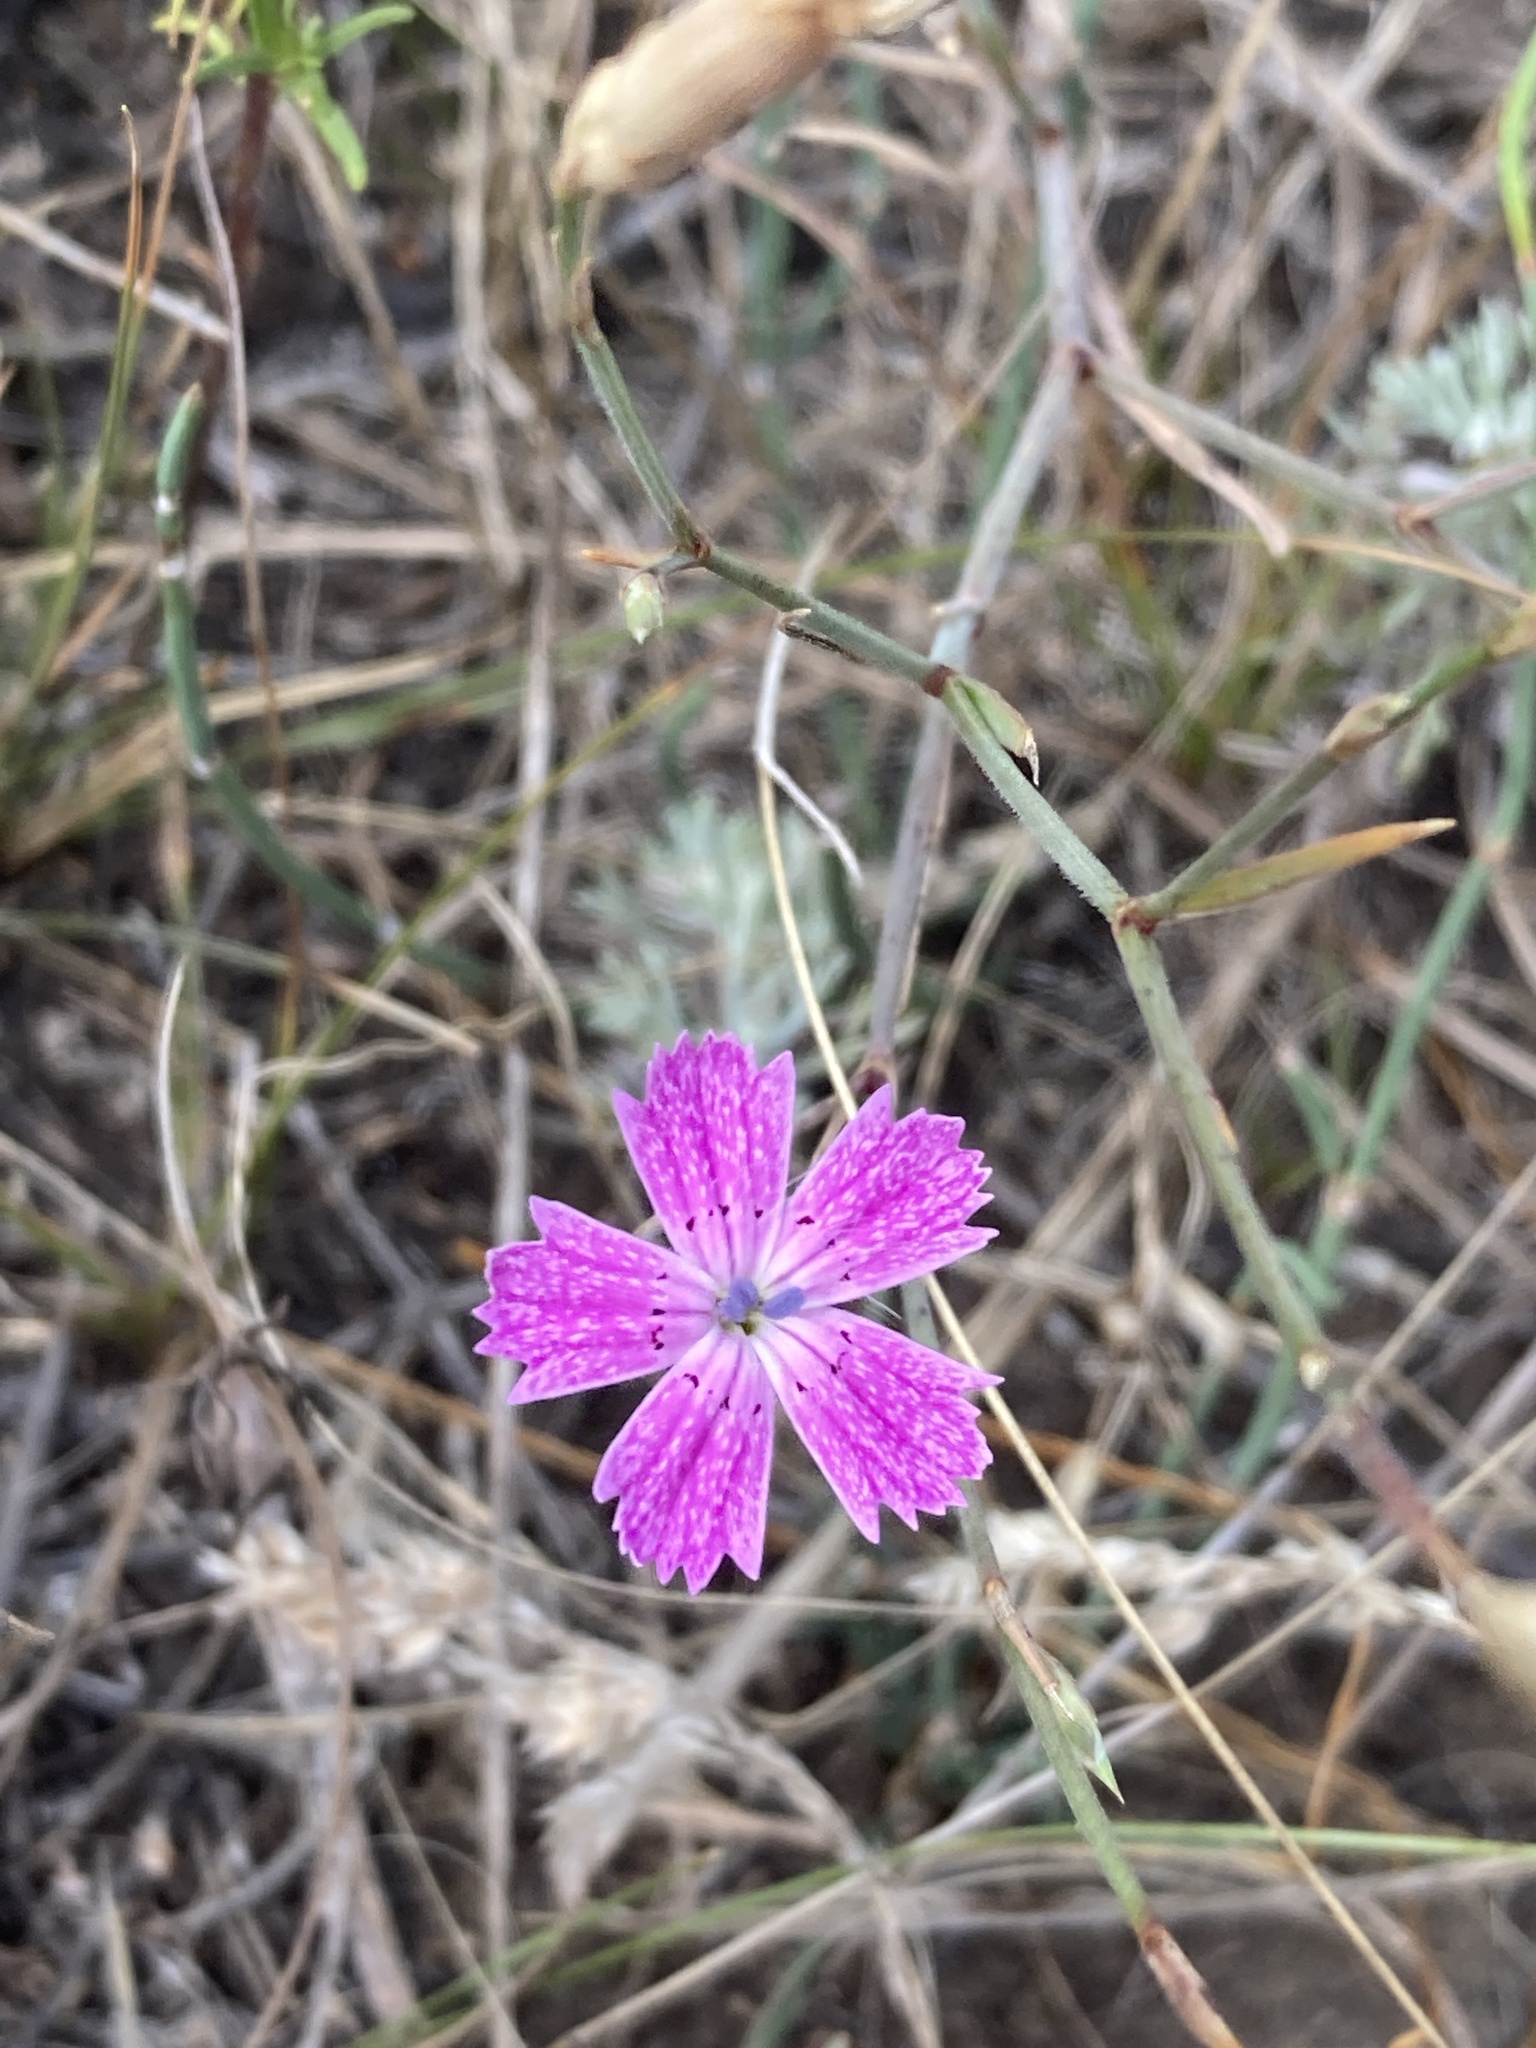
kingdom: Plantae
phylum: Tracheophyta
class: Magnoliopsida
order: Caryophyllales
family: Caryophyllaceae
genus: Dianthus
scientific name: Dianthus campestris
